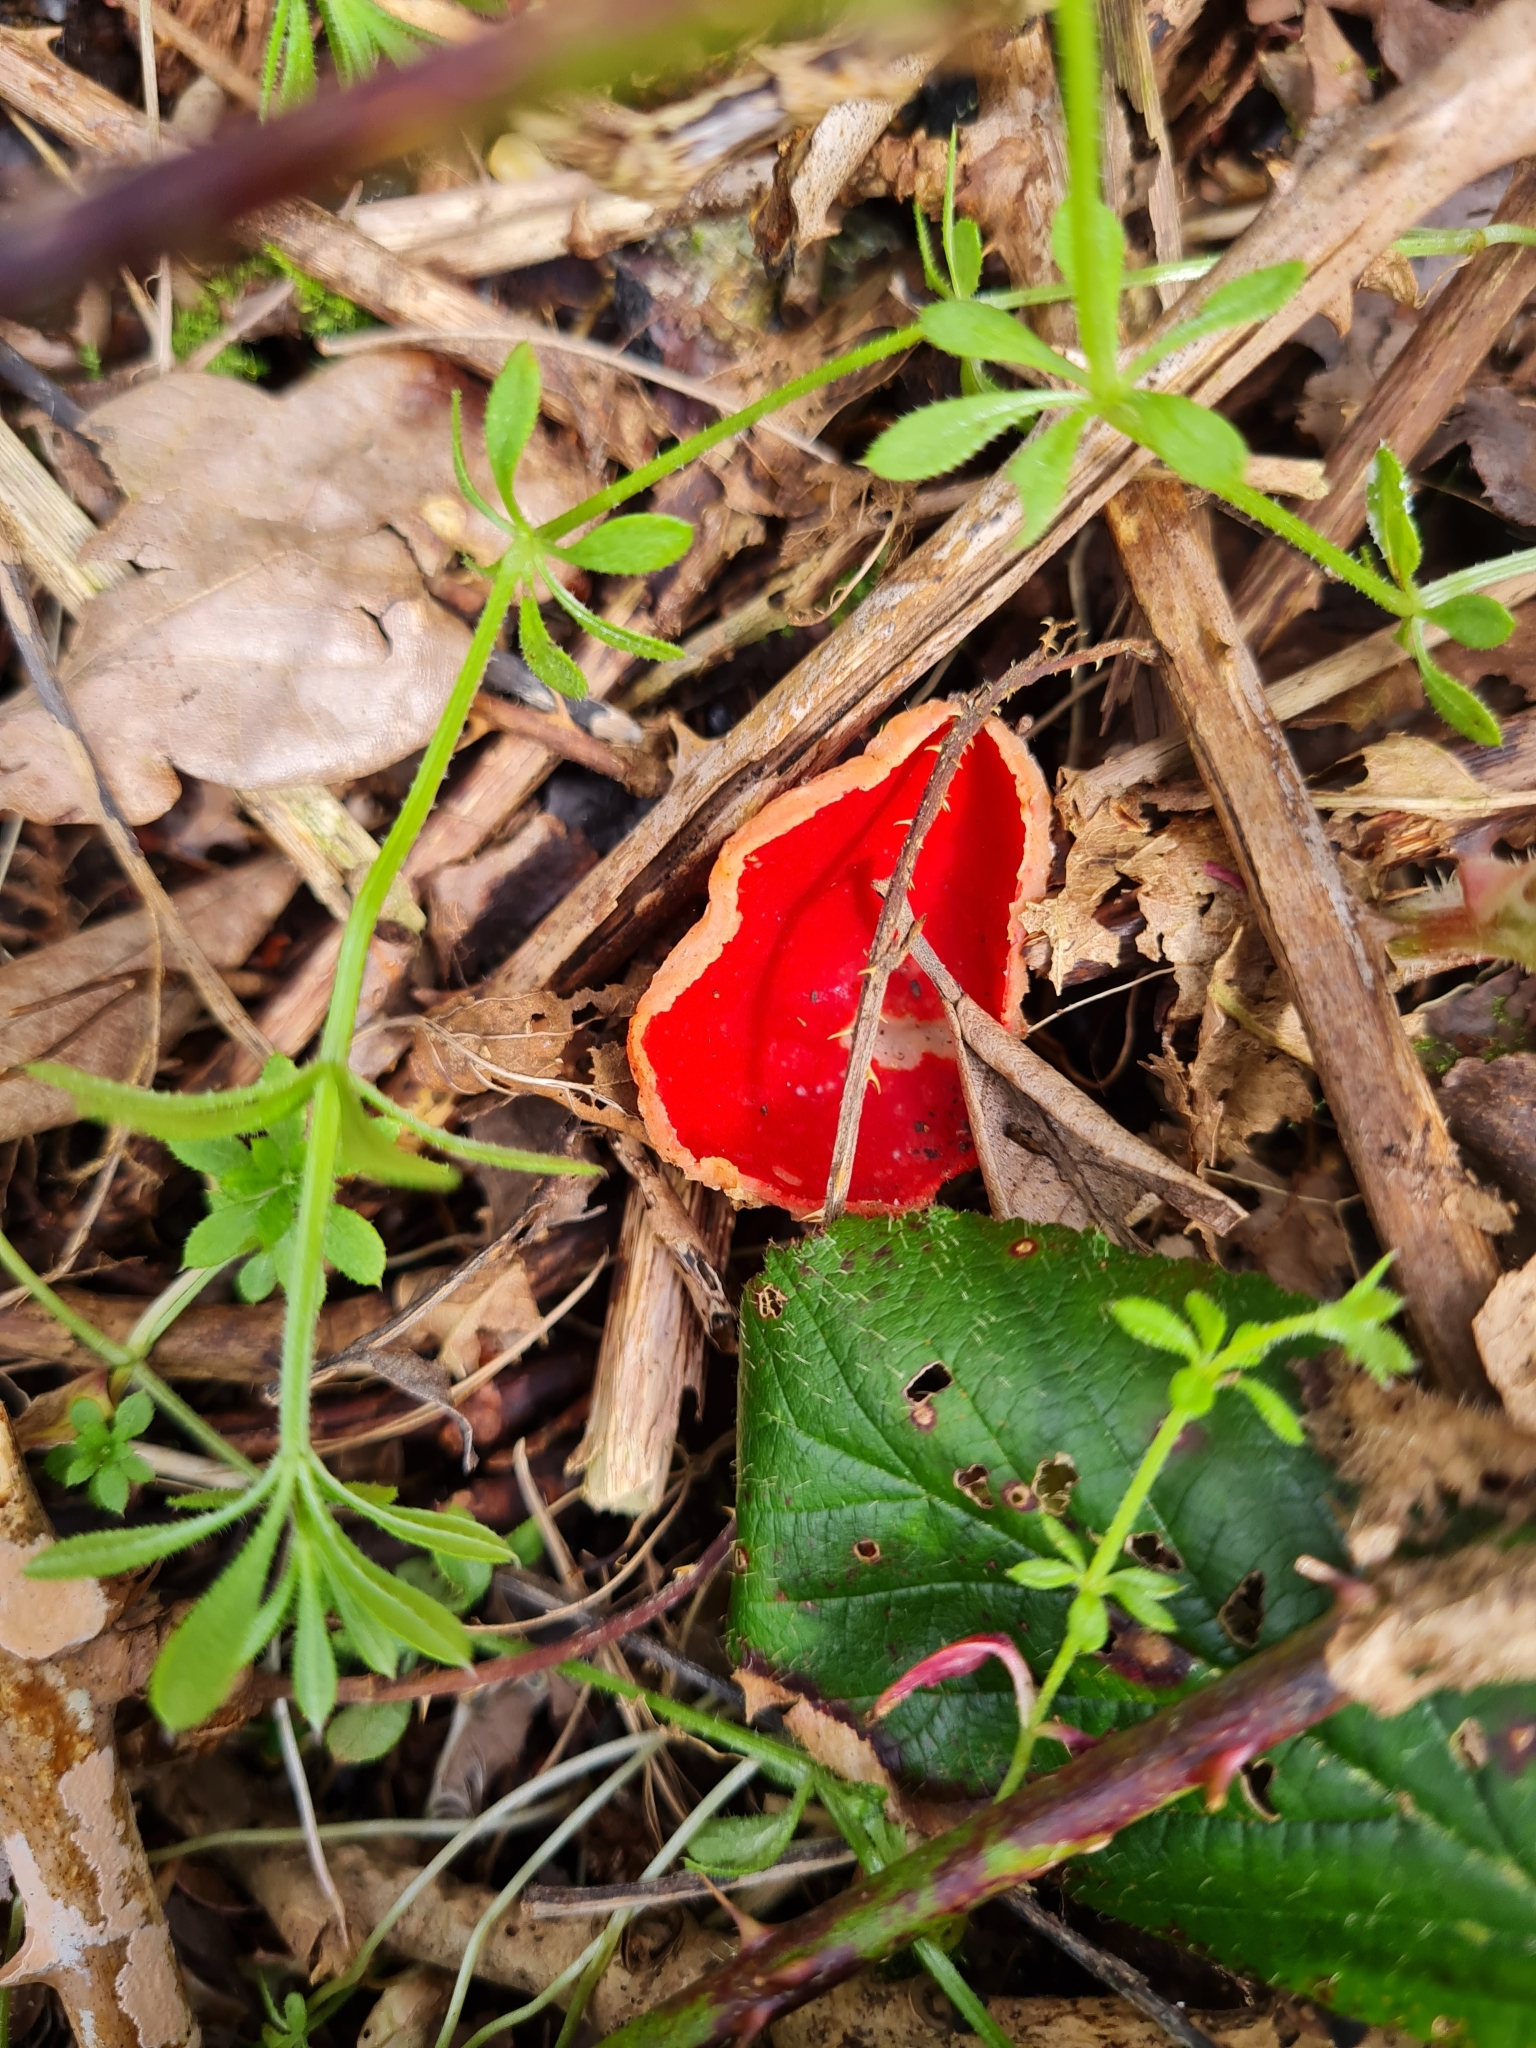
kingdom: Fungi
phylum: Ascomycota
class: Pezizomycetes
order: Pezizales
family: Sarcoscyphaceae
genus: Sarcoscypha
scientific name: Sarcoscypha
